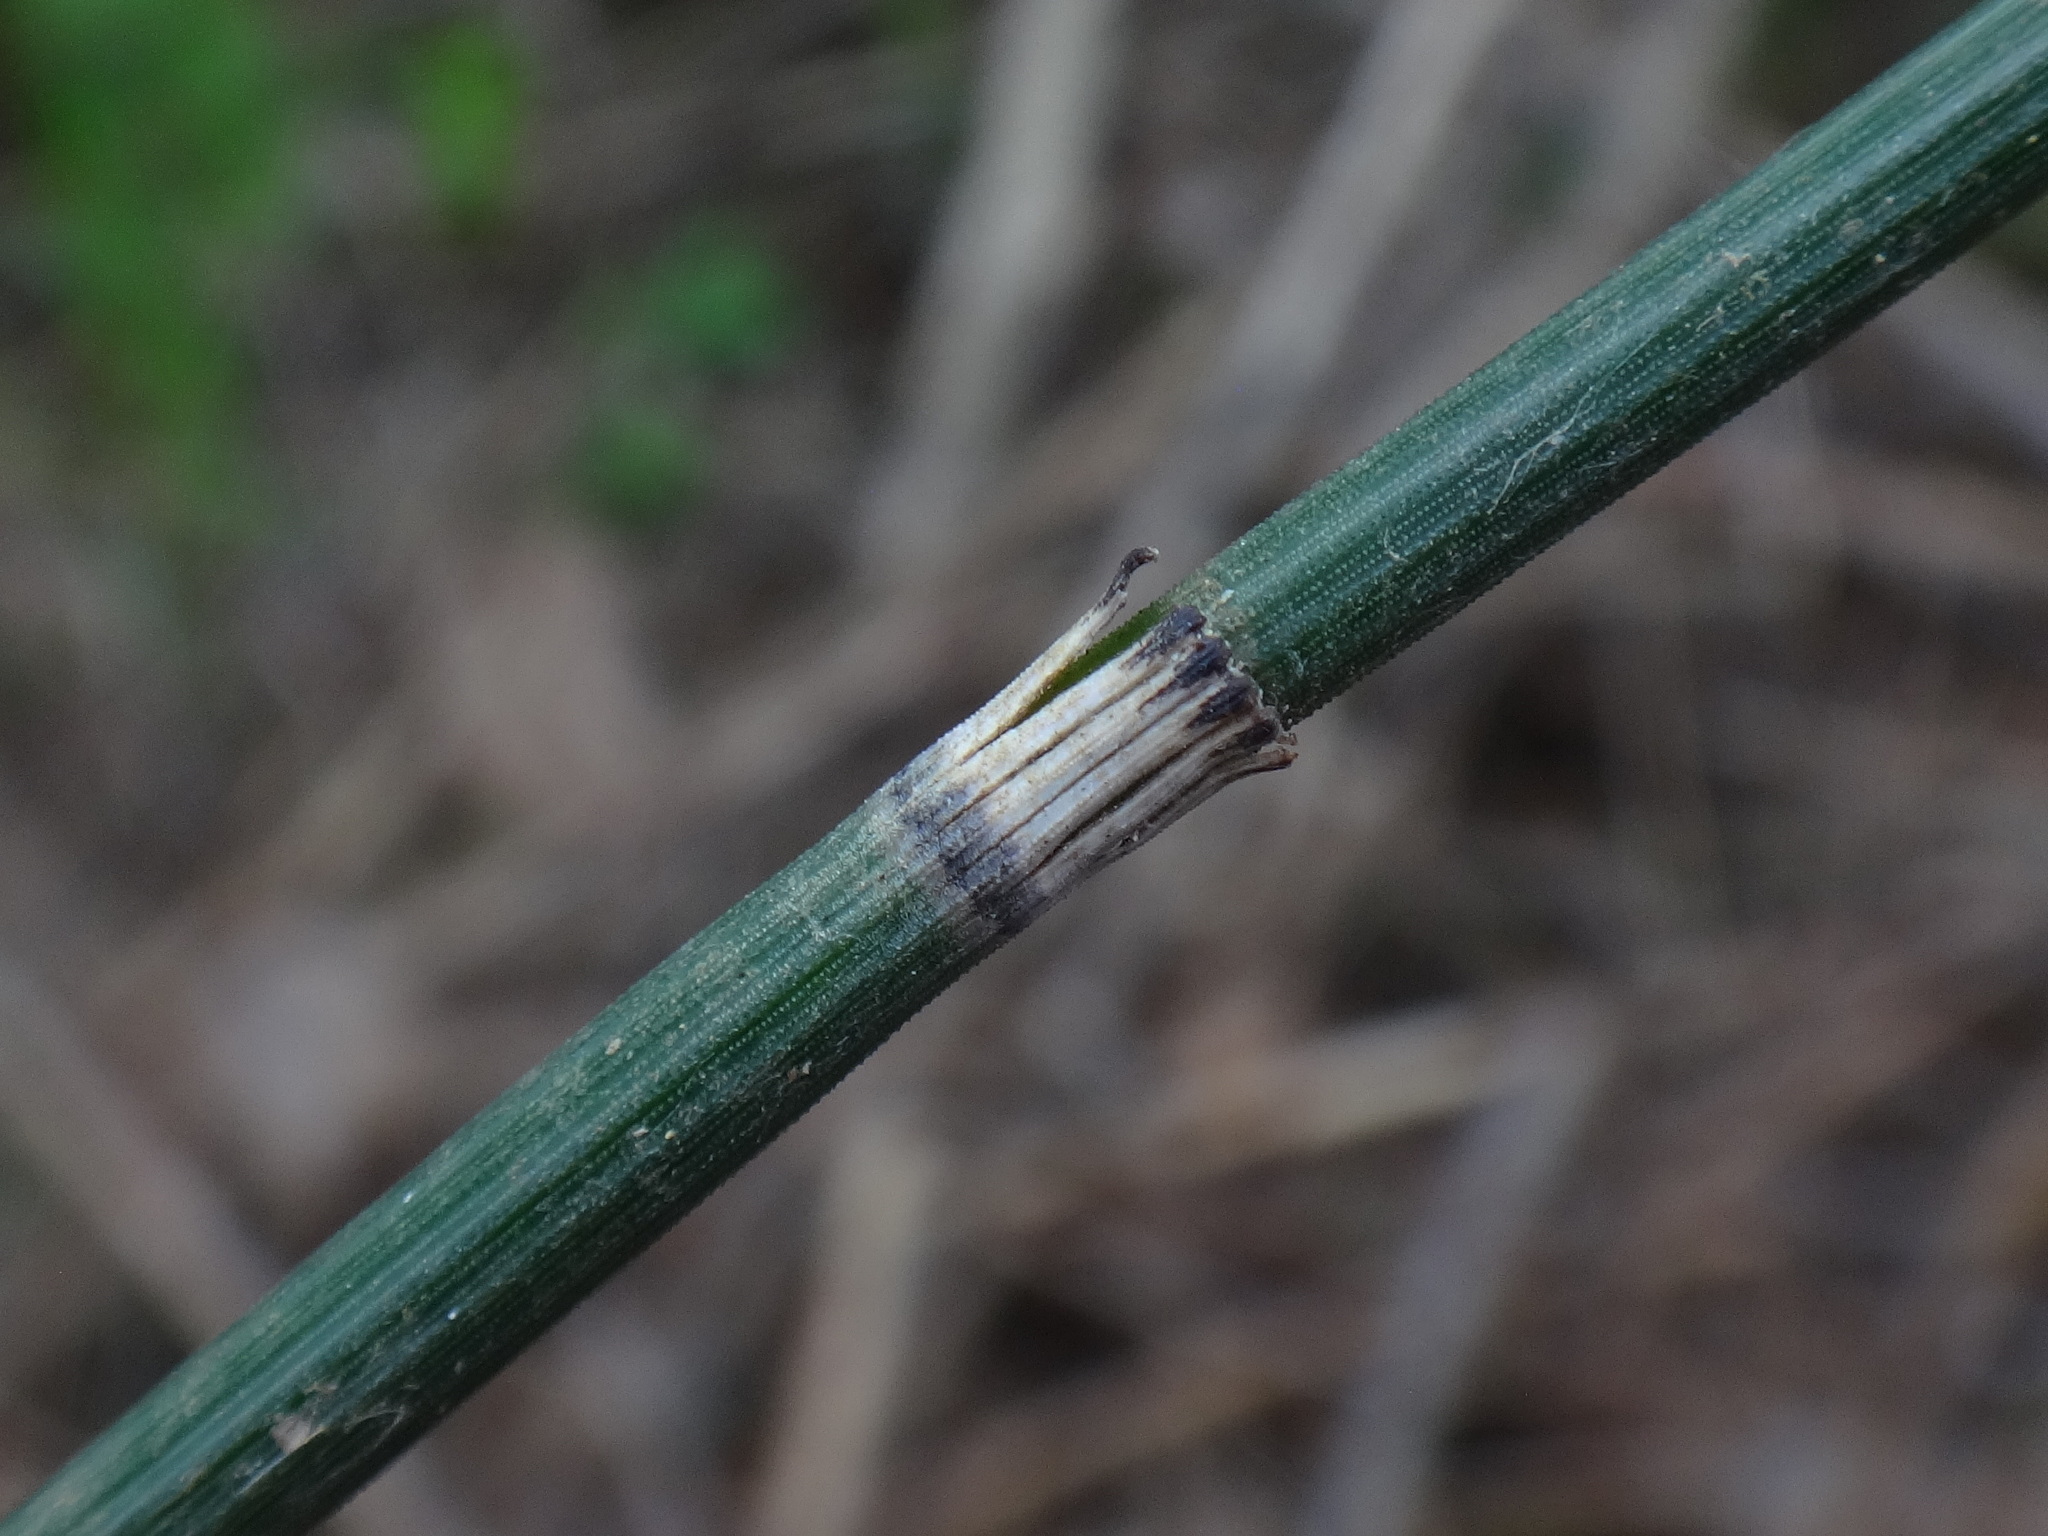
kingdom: Plantae
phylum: Tracheophyta
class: Polypodiopsida
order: Equisetales
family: Equisetaceae
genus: Equisetum
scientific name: Equisetum hyemale
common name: Rough horsetail
